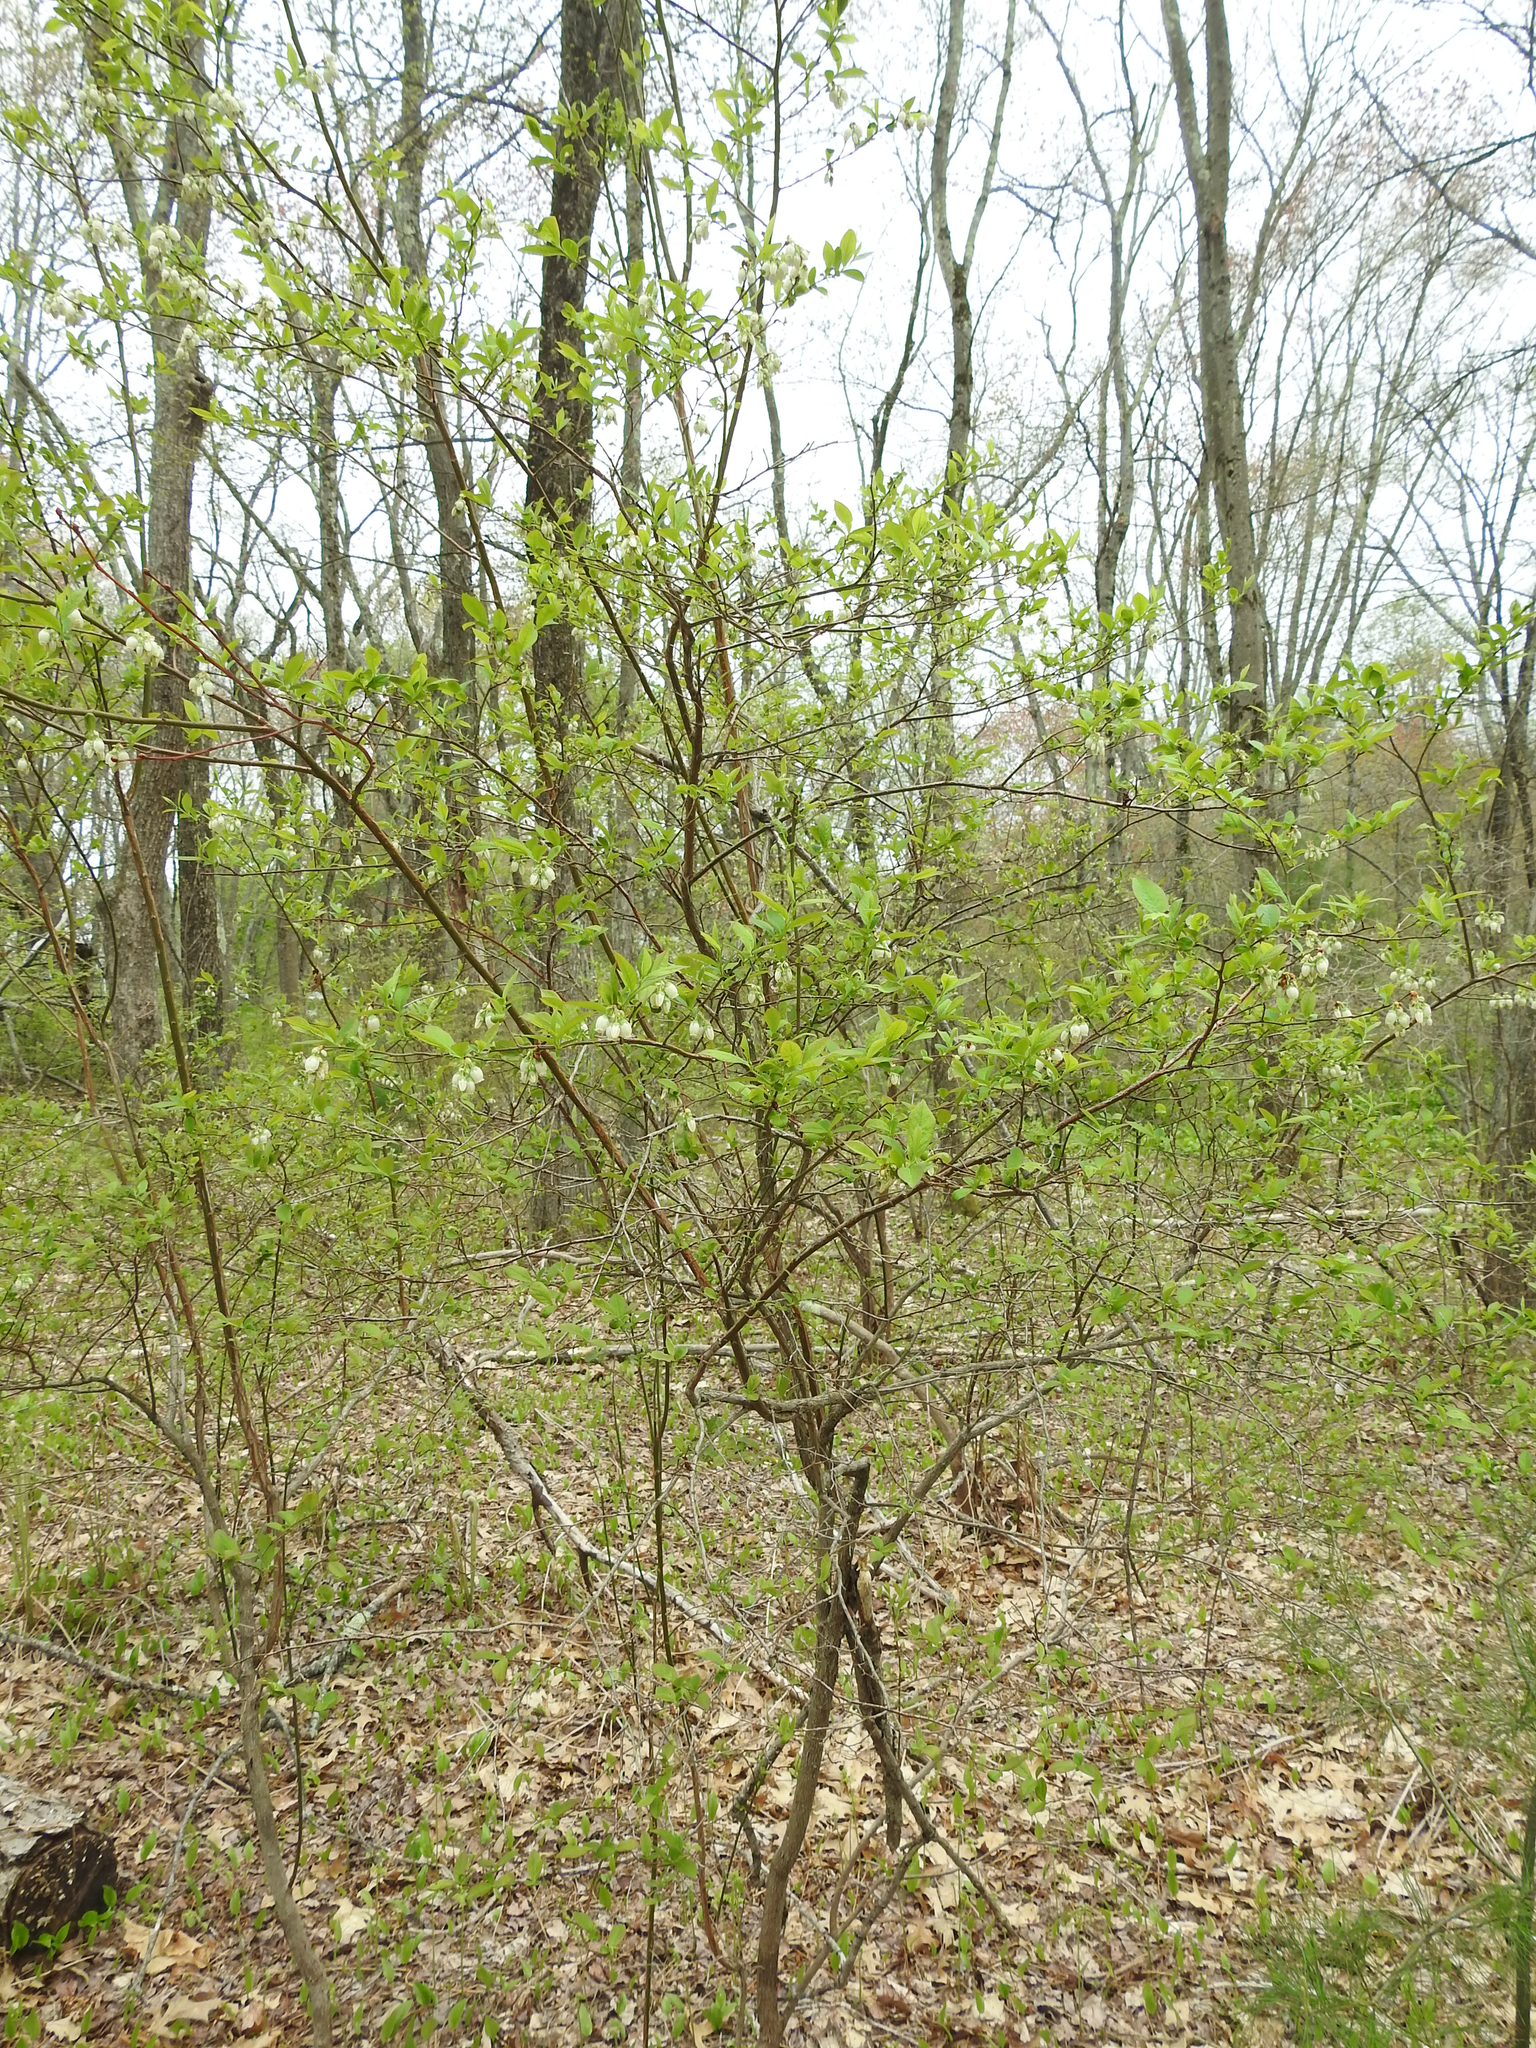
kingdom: Plantae
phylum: Tracheophyta
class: Magnoliopsida
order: Ericales
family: Ericaceae
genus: Vaccinium
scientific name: Vaccinium corymbosum
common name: Blueberry
